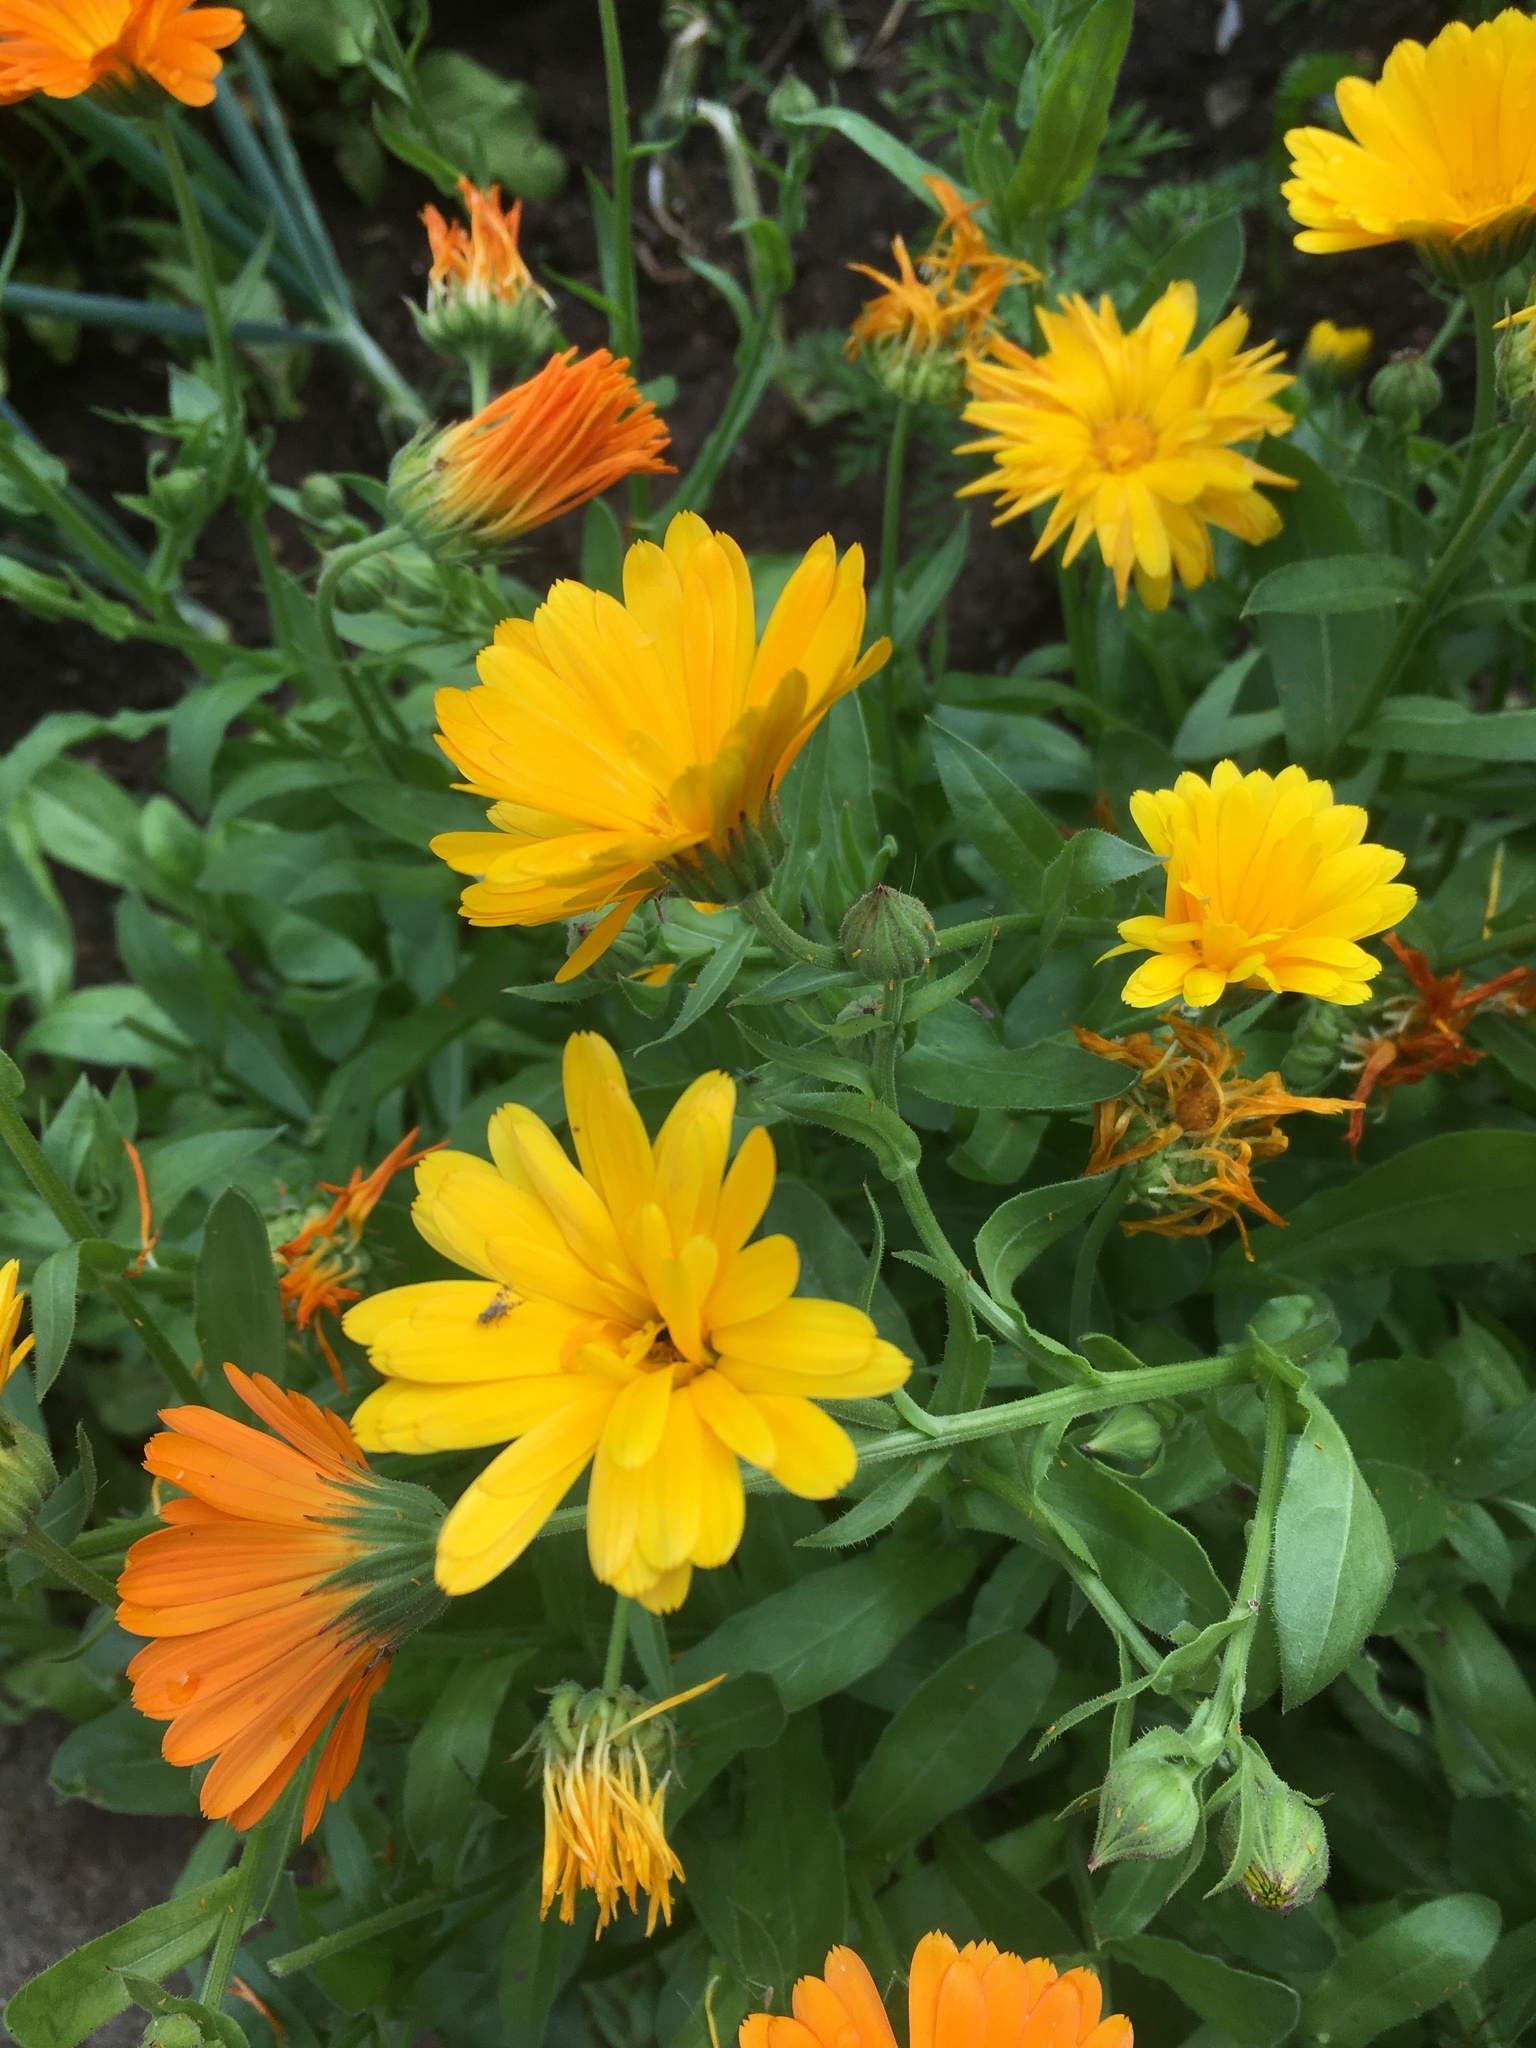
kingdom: Plantae
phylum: Tracheophyta
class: Magnoliopsida
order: Asterales
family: Asteraceae
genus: Calendula
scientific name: Calendula officinalis
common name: Pot marigold
